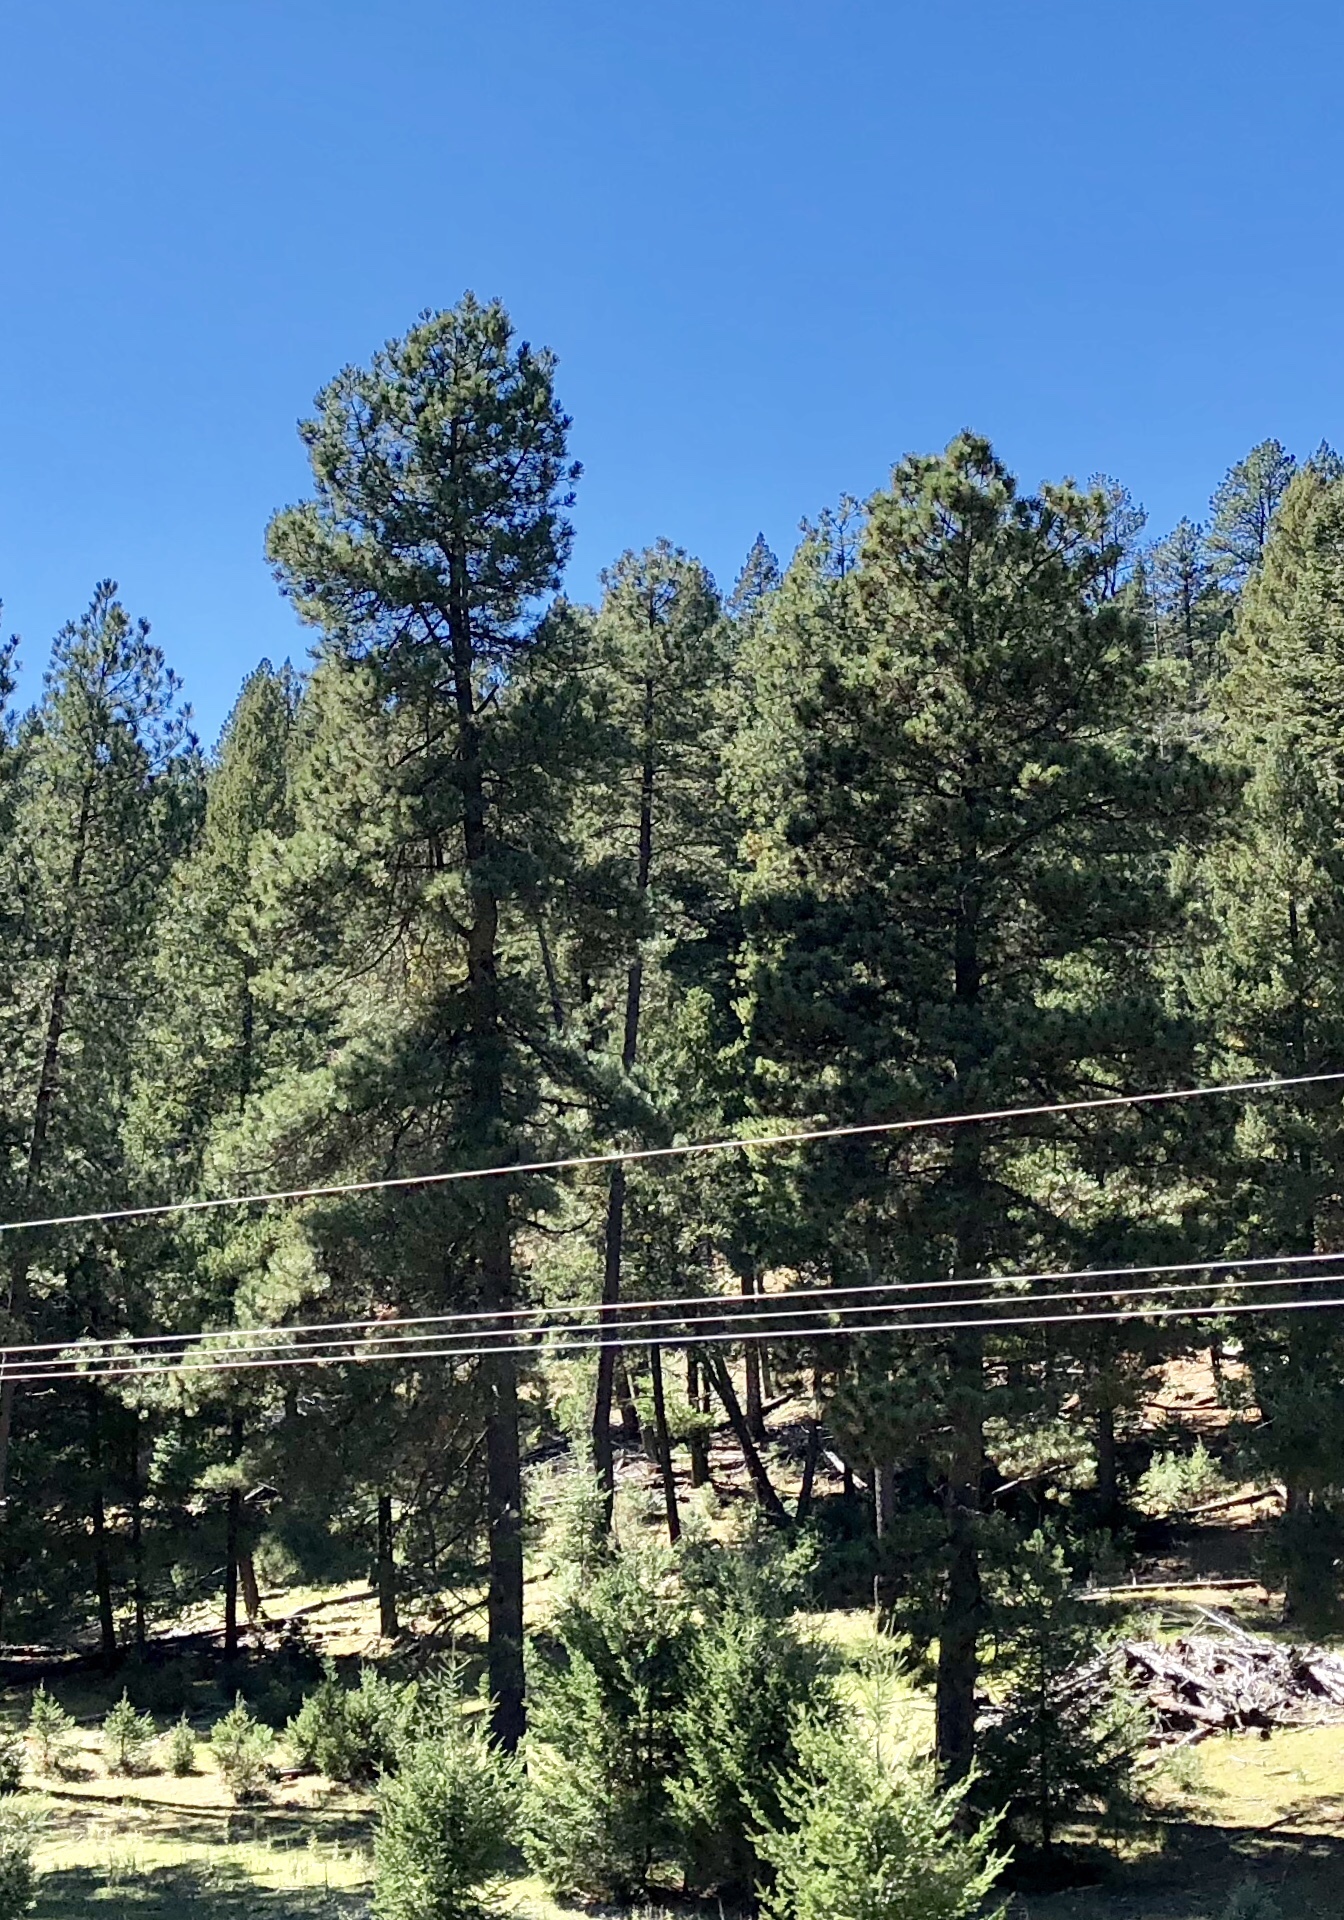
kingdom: Plantae
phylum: Tracheophyta
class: Pinopsida
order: Pinales
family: Pinaceae
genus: Pinus
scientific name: Pinus ponderosa
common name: Western yellow-pine
